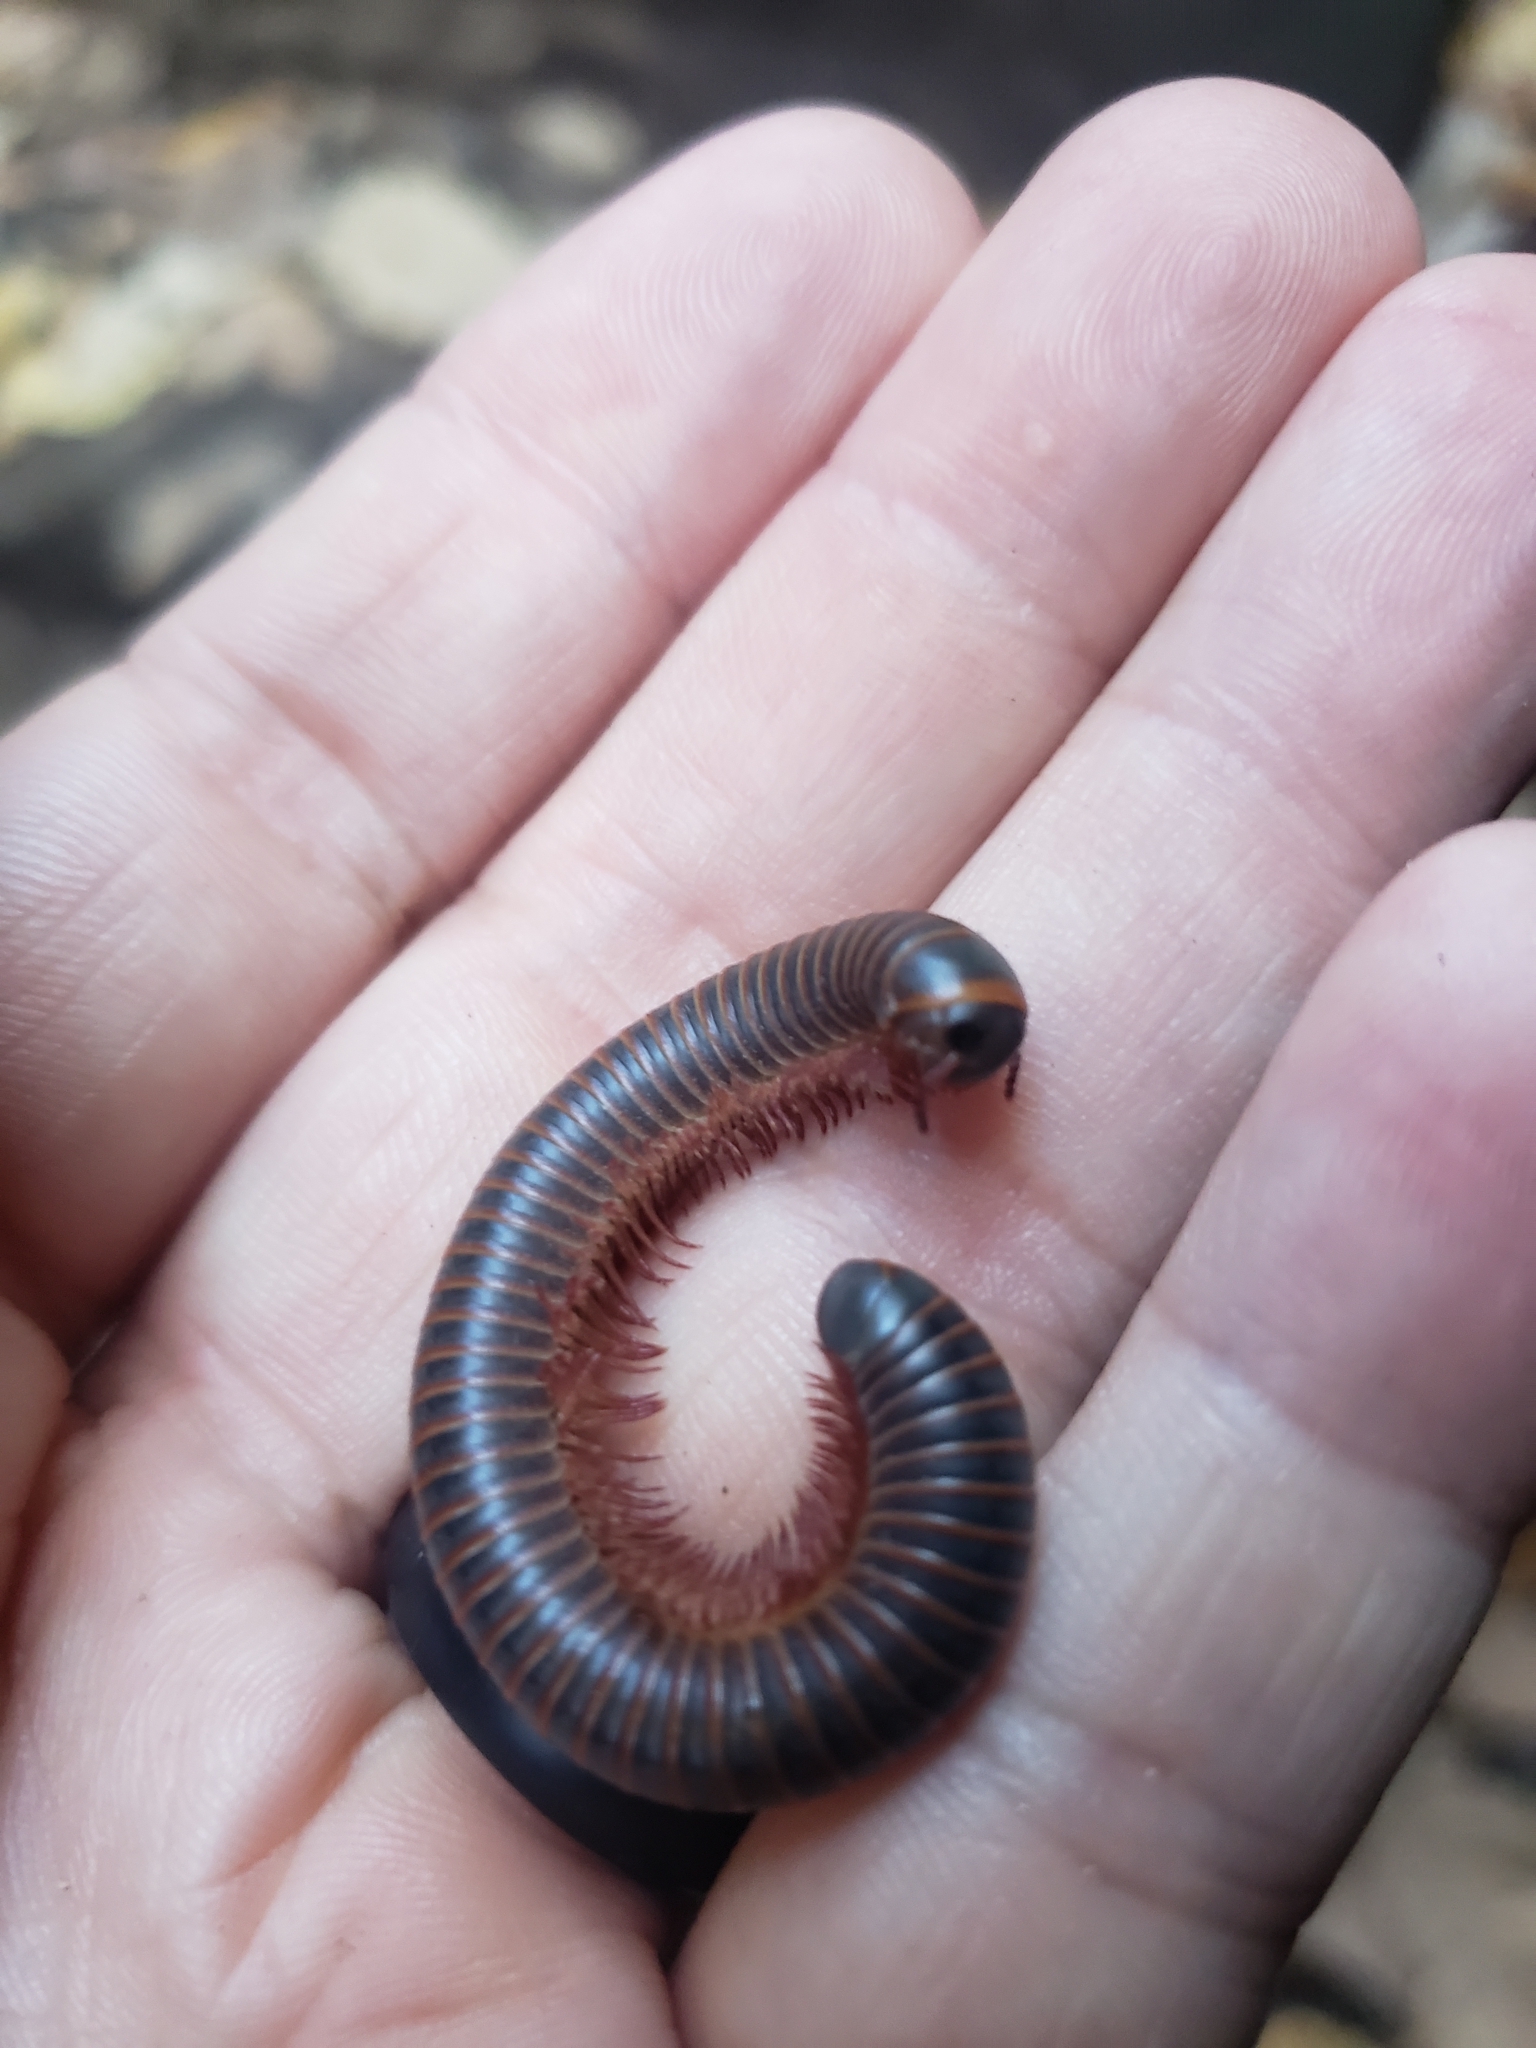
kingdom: Animalia
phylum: Arthropoda
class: Diplopoda
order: Spirobolida
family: Spirobolidae
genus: Narceus
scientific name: Narceus americanus
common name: American giant millipede
